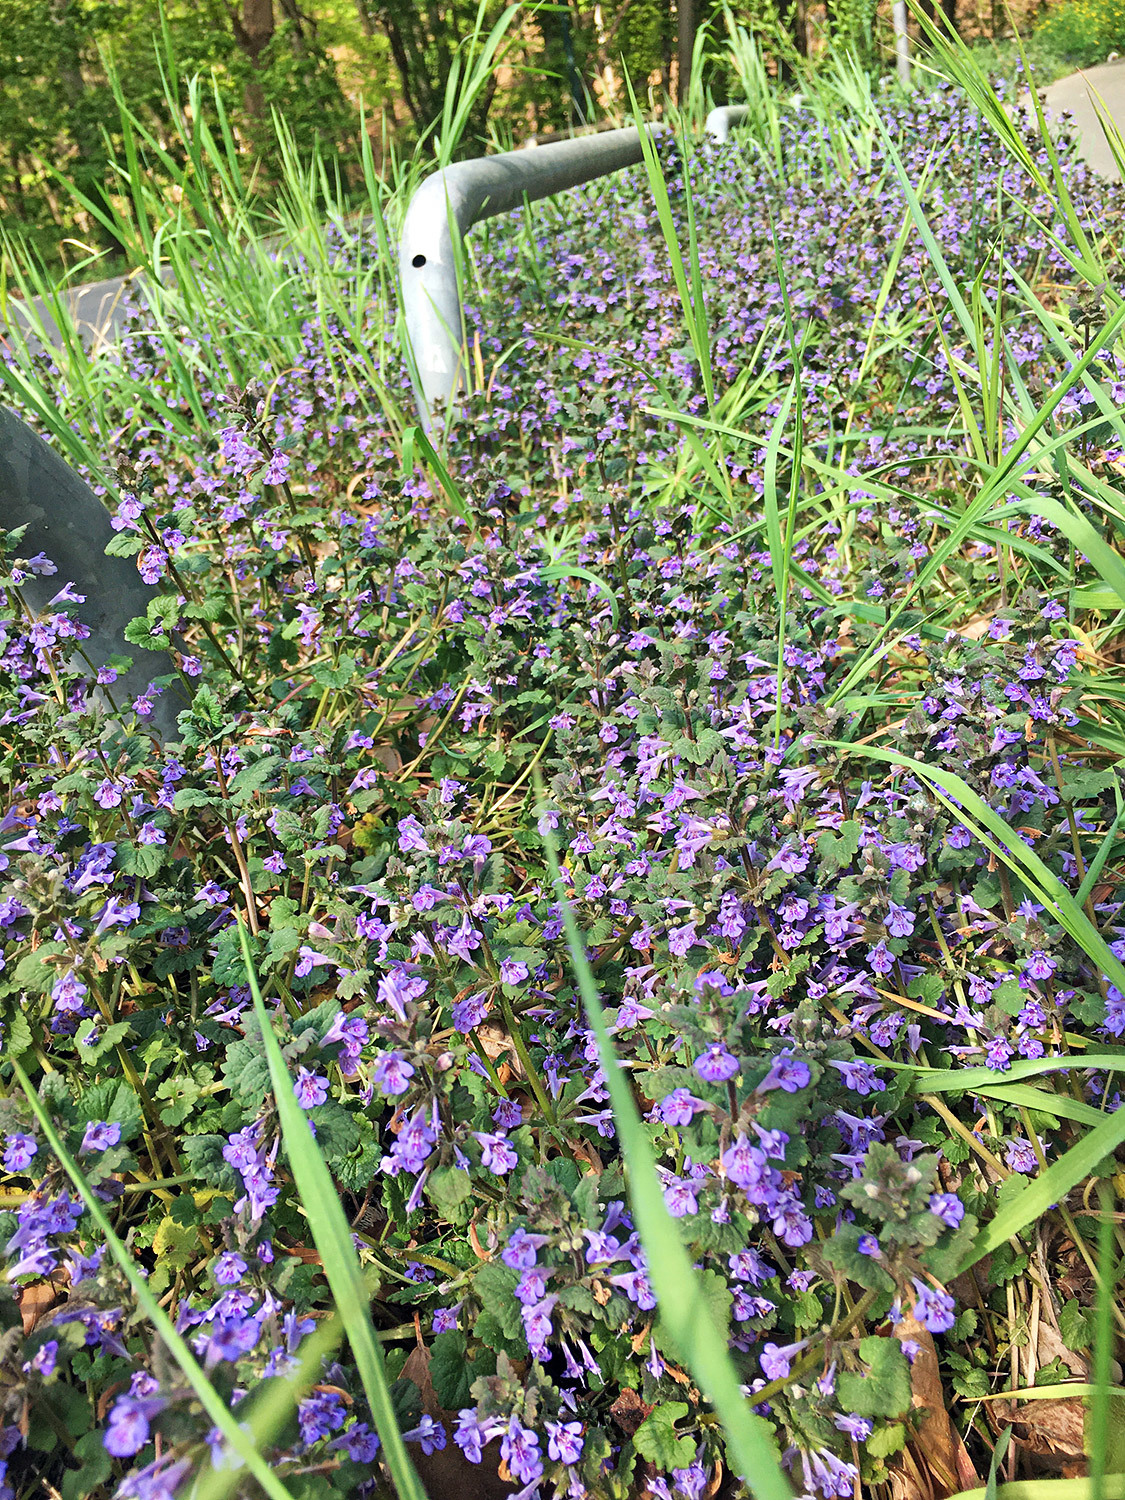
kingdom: Plantae
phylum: Tracheophyta
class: Magnoliopsida
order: Lamiales
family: Lamiaceae
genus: Glechoma
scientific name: Glechoma hederacea
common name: Ground ivy
